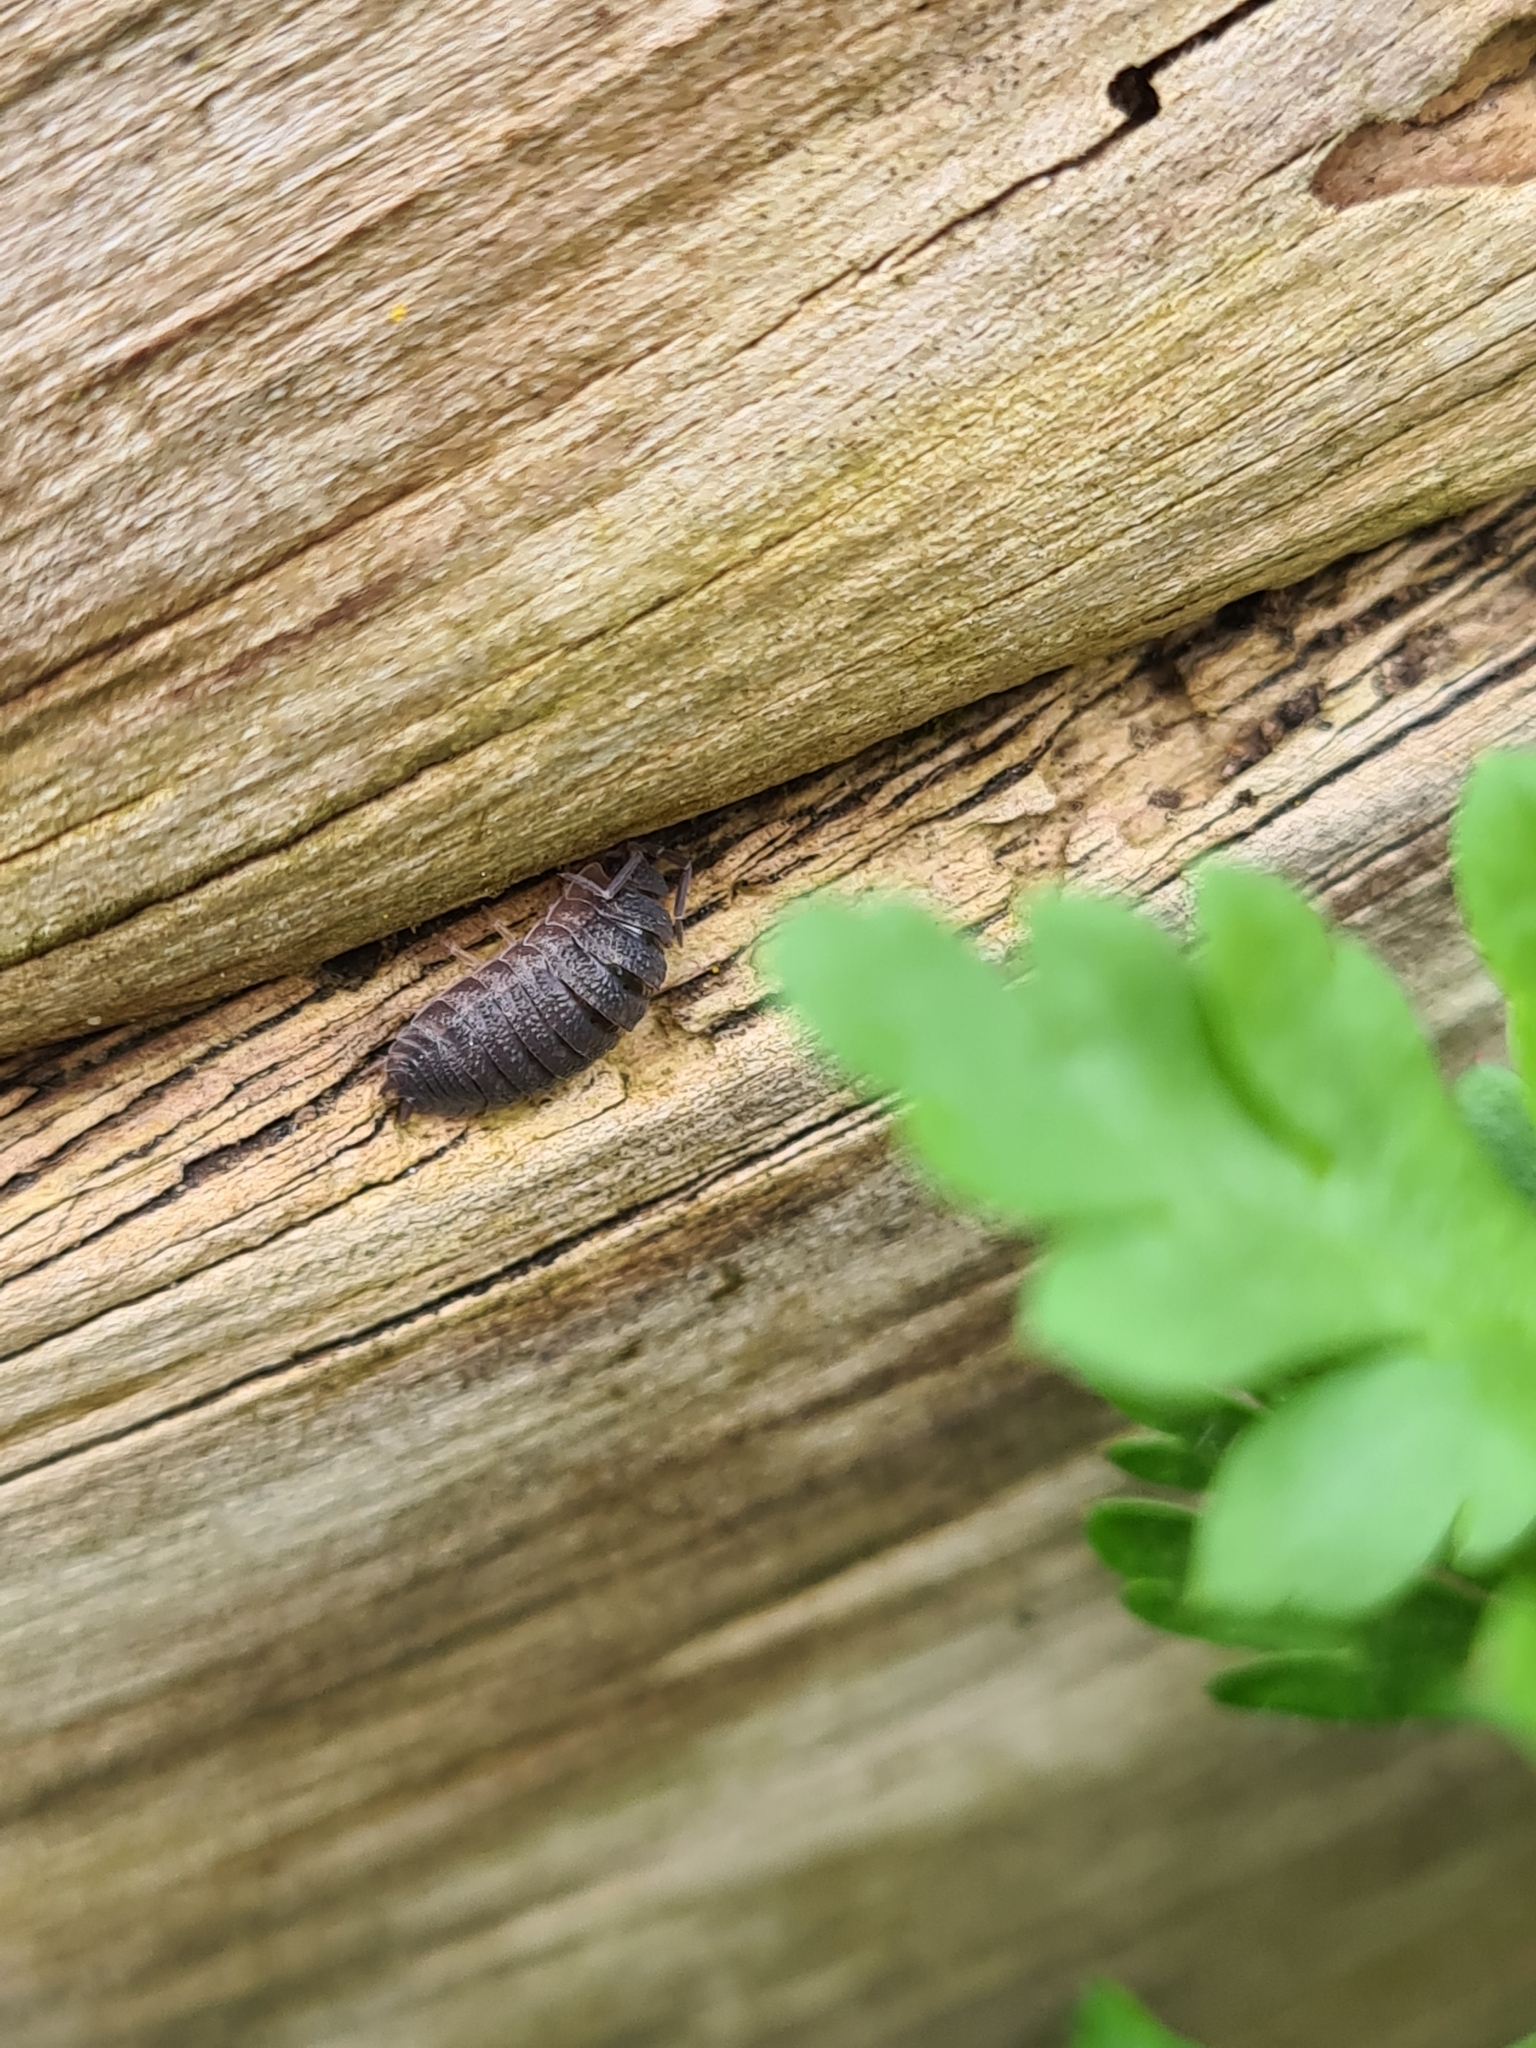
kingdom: Animalia
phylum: Arthropoda
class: Malacostraca
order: Isopoda
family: Porcellionidae
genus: Porcellio
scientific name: Porcellio scaber
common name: Common rough woodlouse
